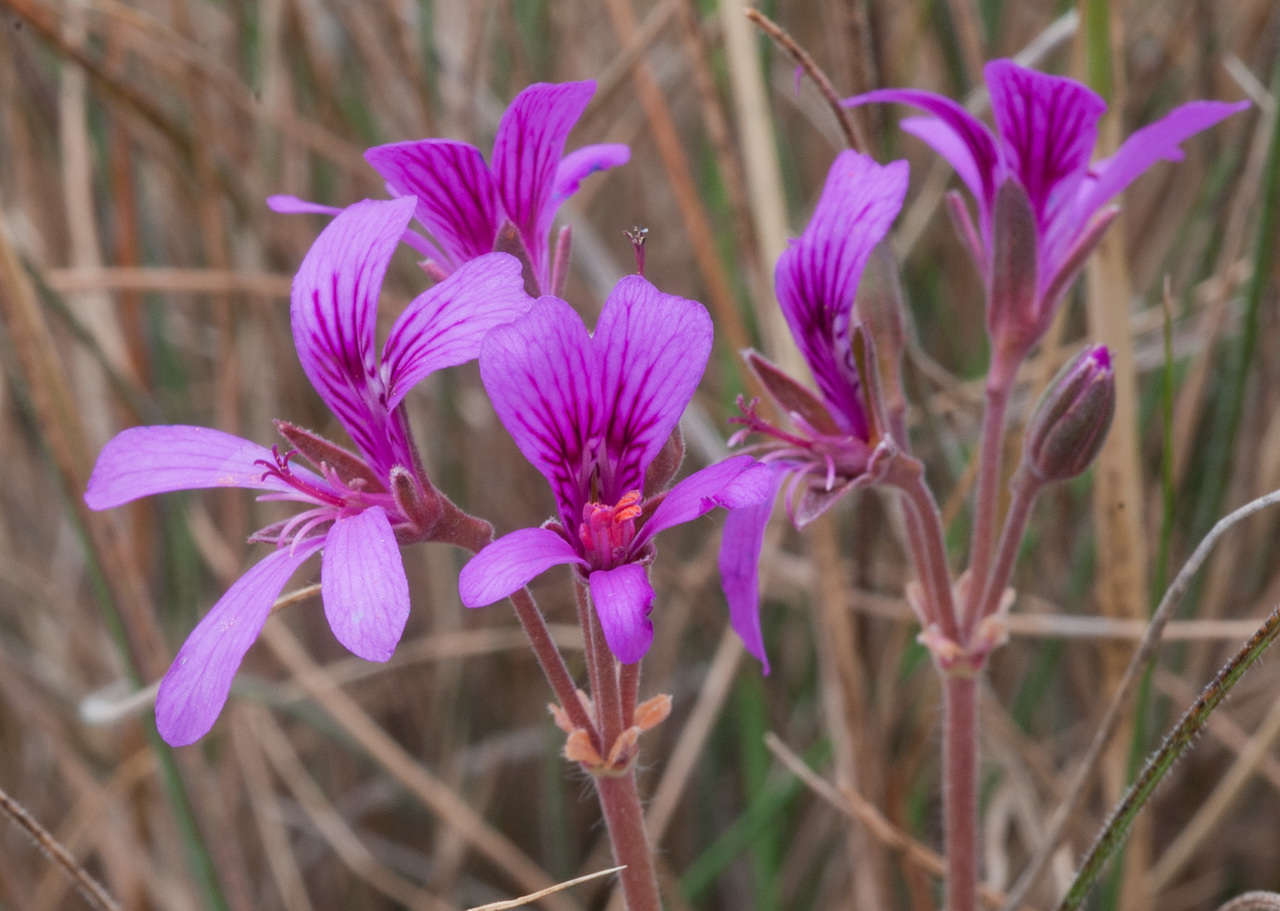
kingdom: Plantae
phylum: Tracheophyta
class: Magnoliopsida
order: Geraniales
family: Geraniaceae
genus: Pelargonium
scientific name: Pelargonium rodneyanum
